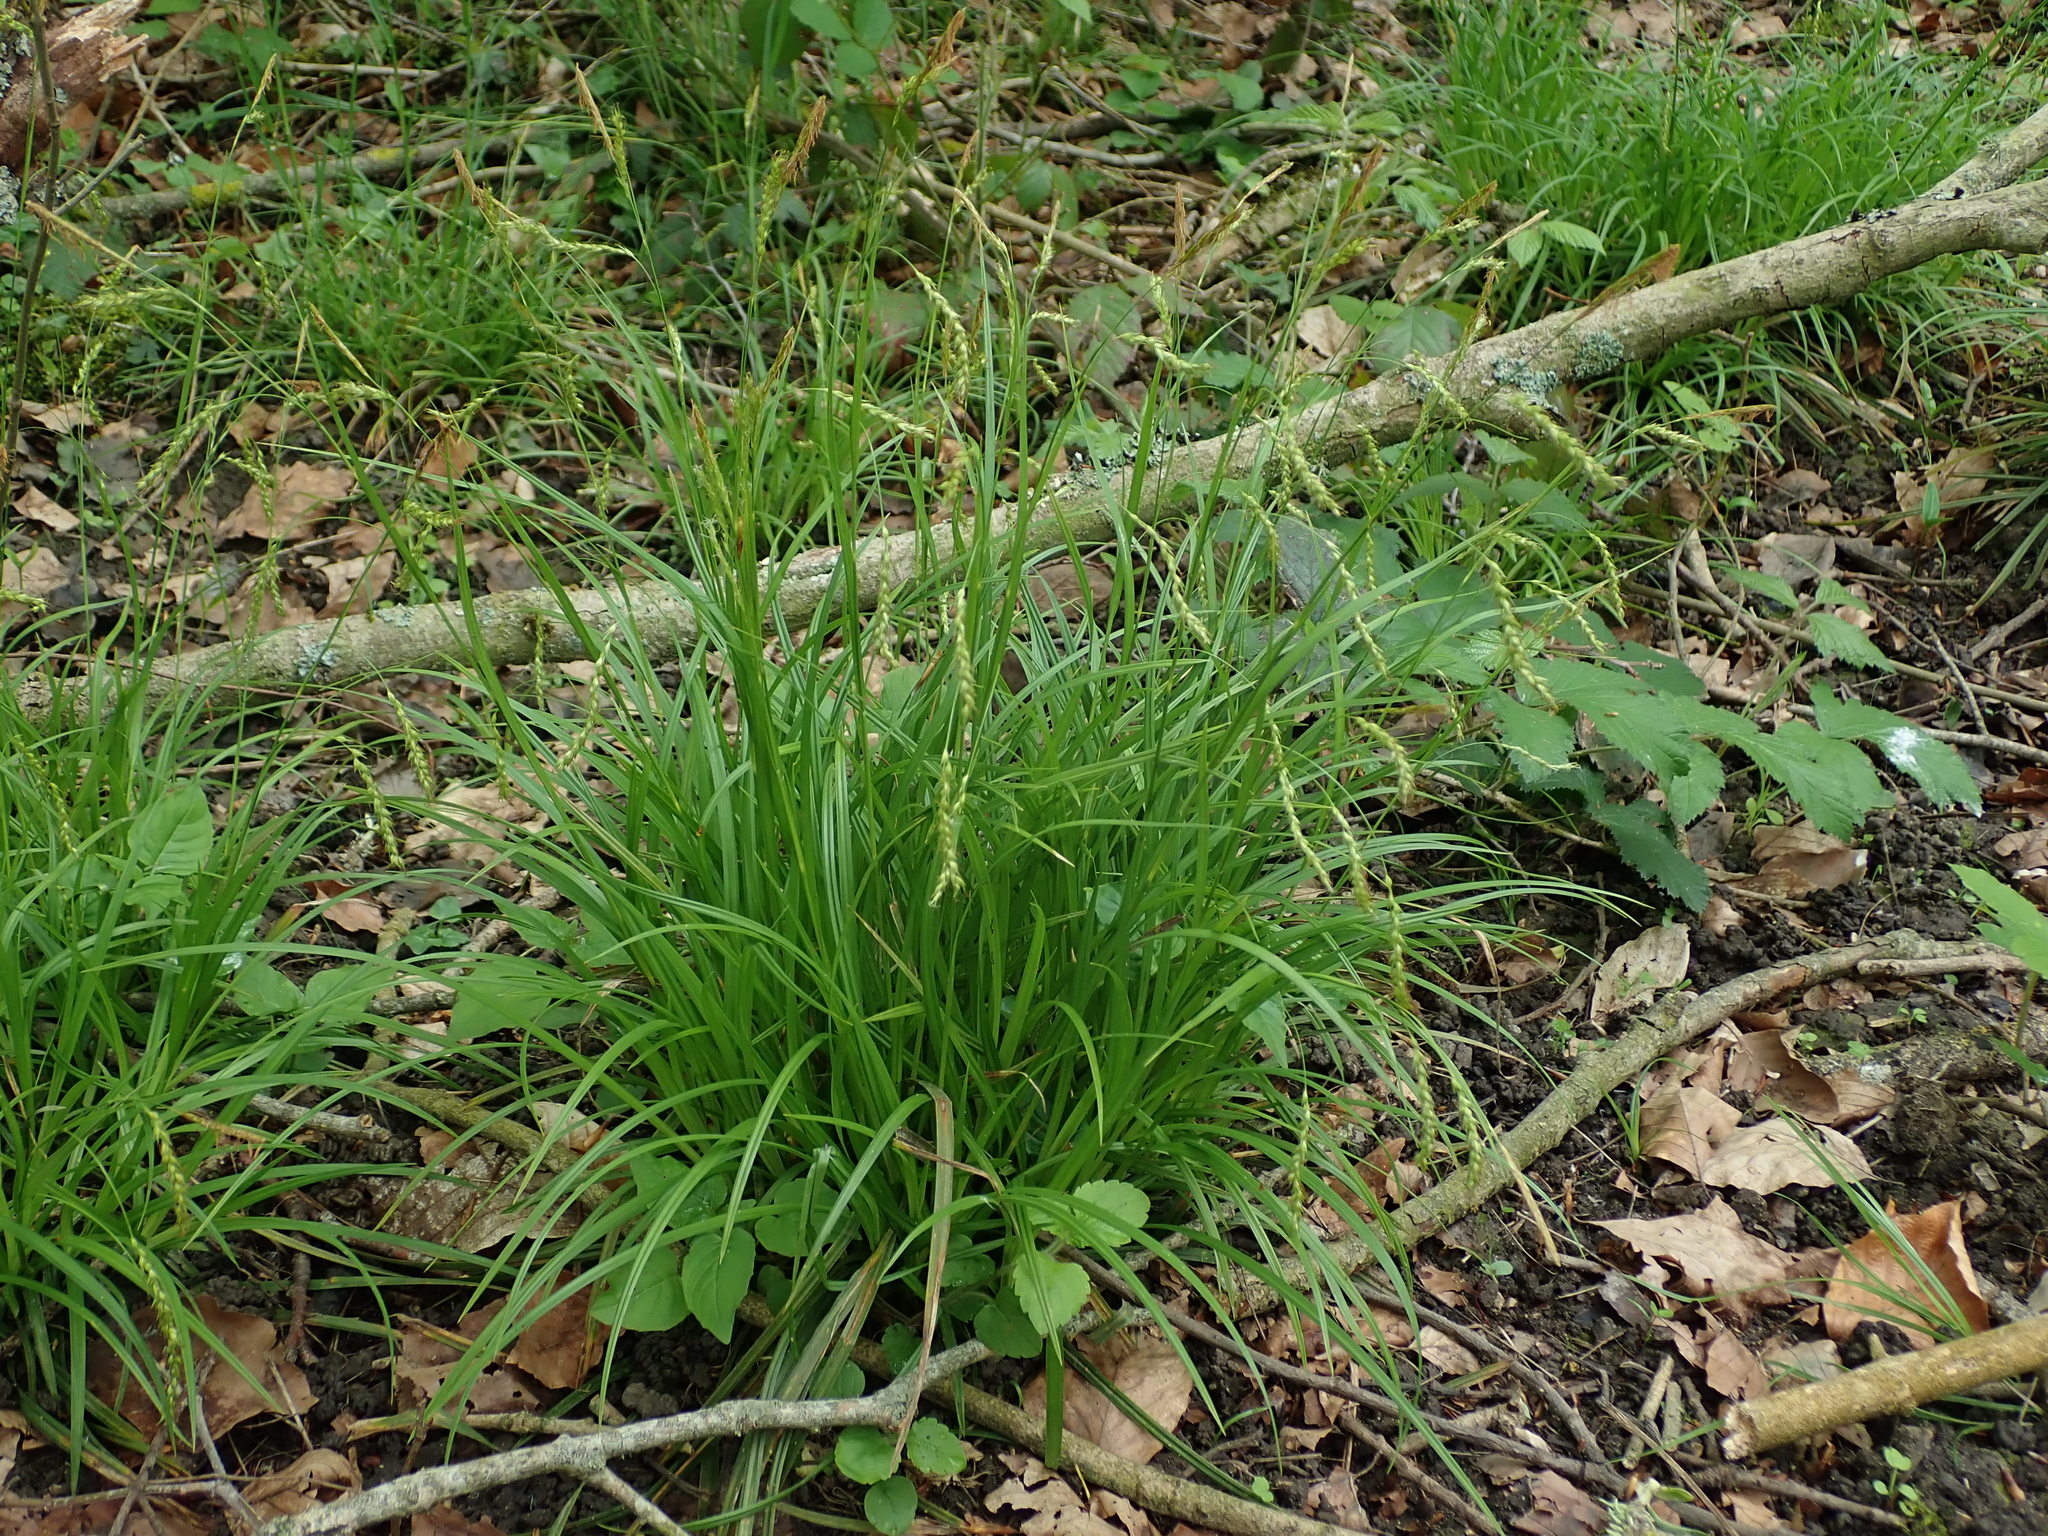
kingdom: Plantae
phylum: Tracheophyta
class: Liliopsida
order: Poales
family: Cyperaceae
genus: Carex
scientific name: Carex sylvatica
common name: Wood-sedge
